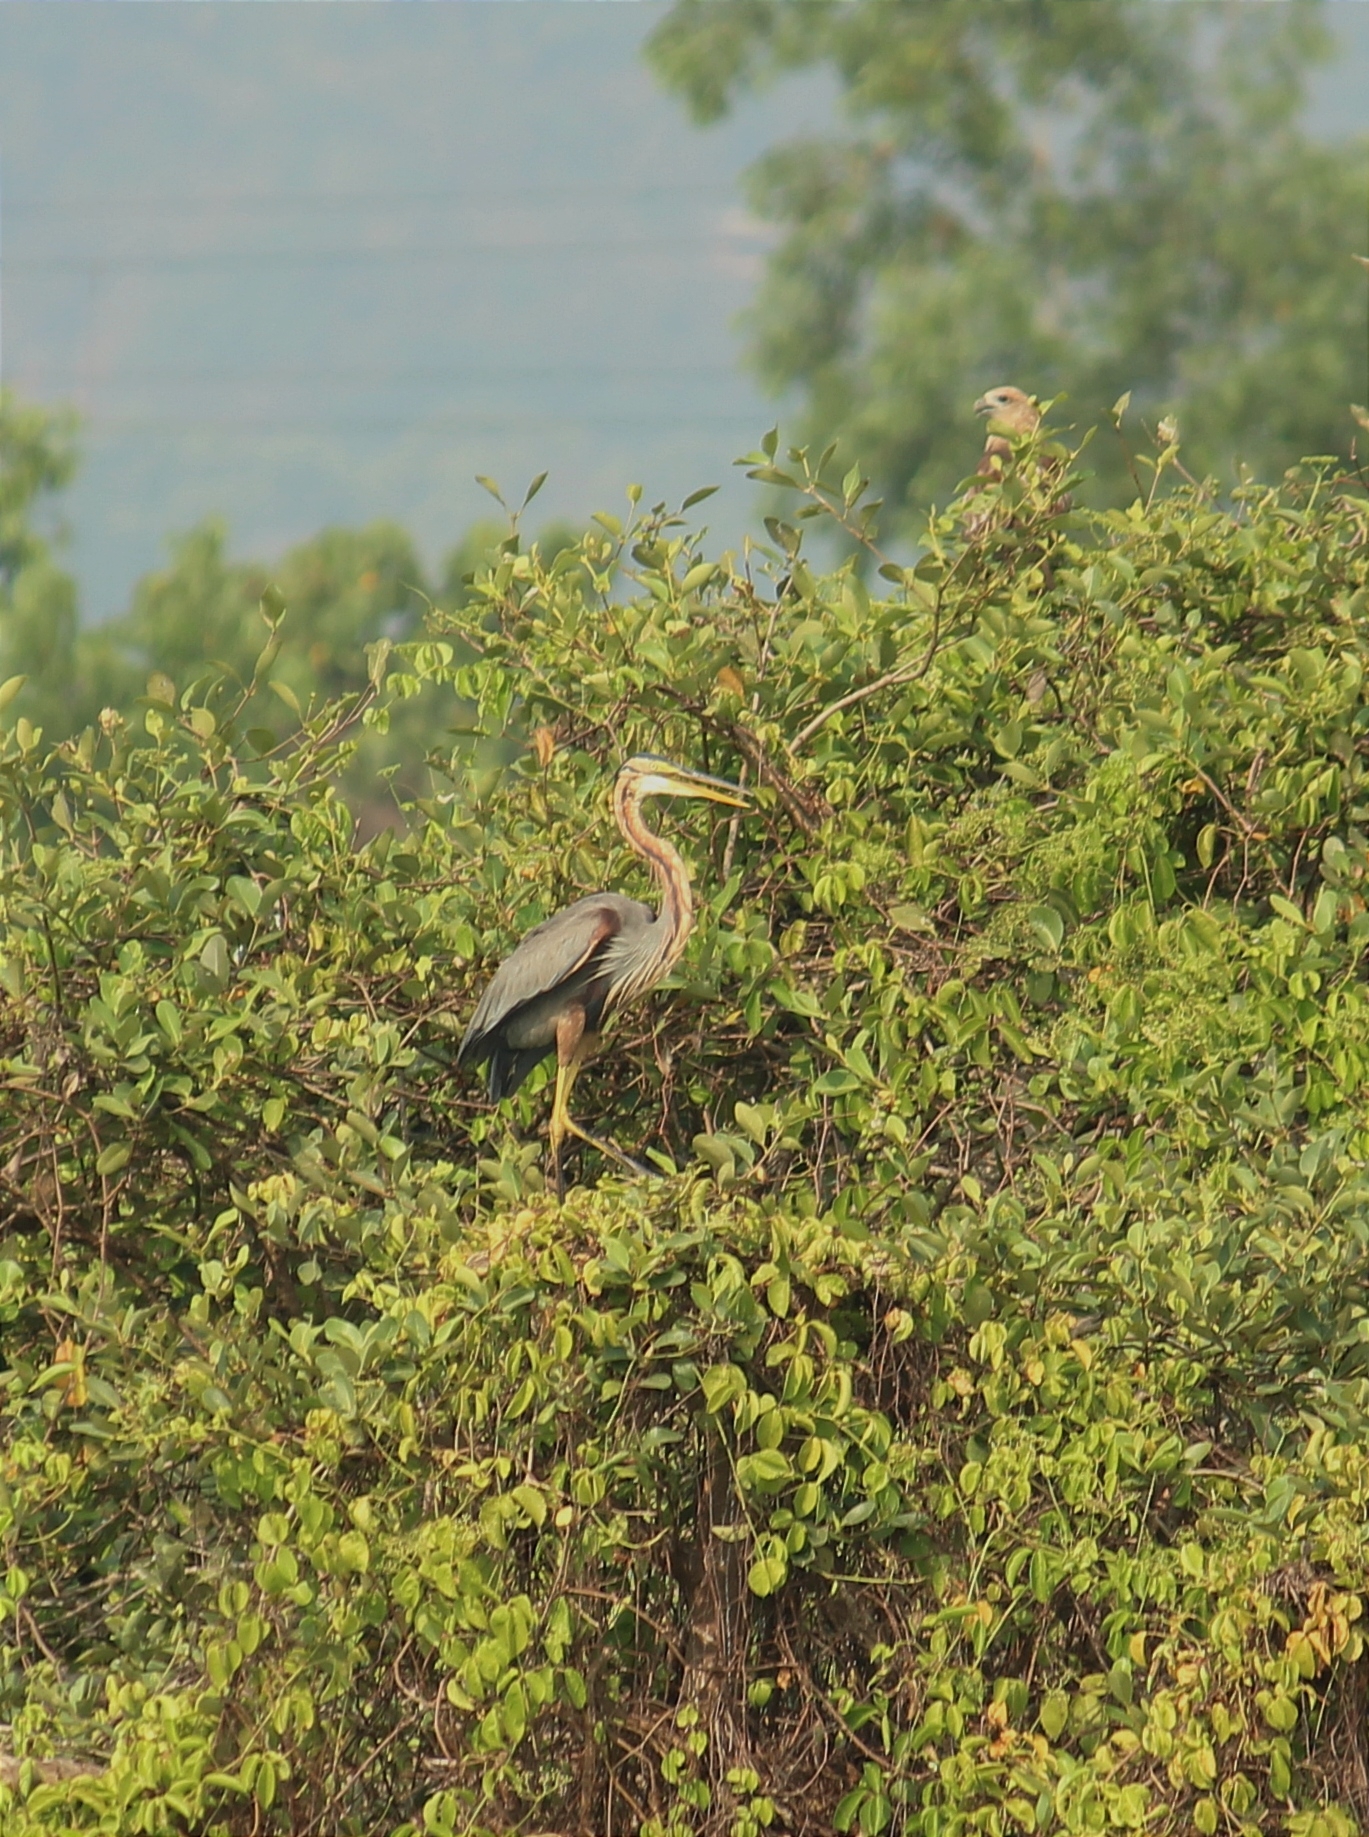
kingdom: Animalia
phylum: Chordata
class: Aves
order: Pelecaniformes
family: Ardeidae
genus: Ardea
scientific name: Ardea purpurea
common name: Purple heron
